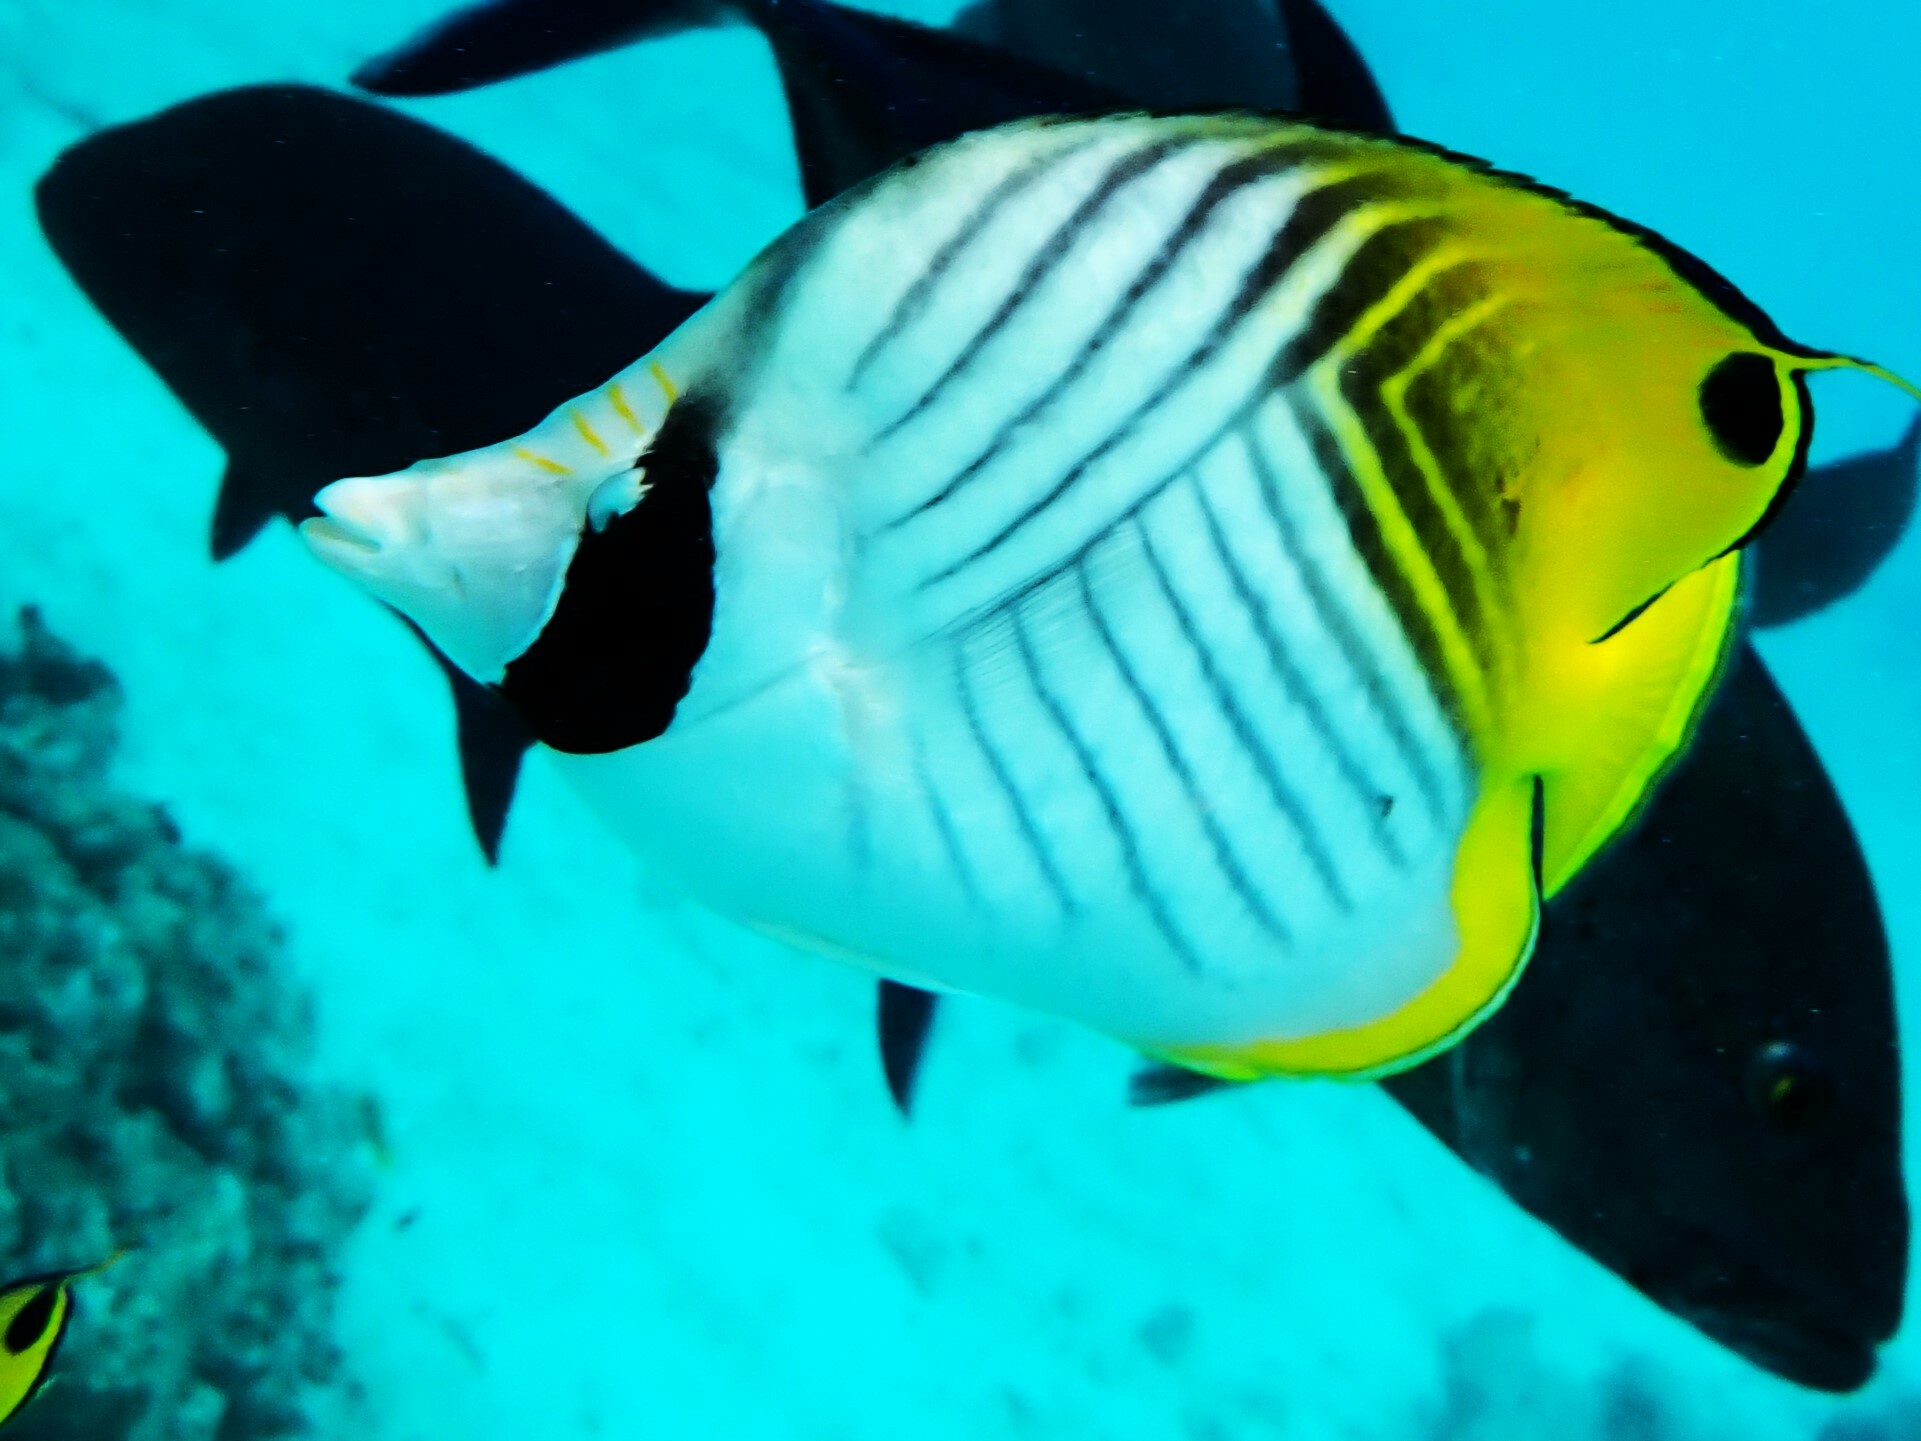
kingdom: Animalia
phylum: Chordata
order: Perciformes
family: Chaetodontidae
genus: Chaetodon
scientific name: Chaetodon auriga
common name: Threadfin butterflyfish
